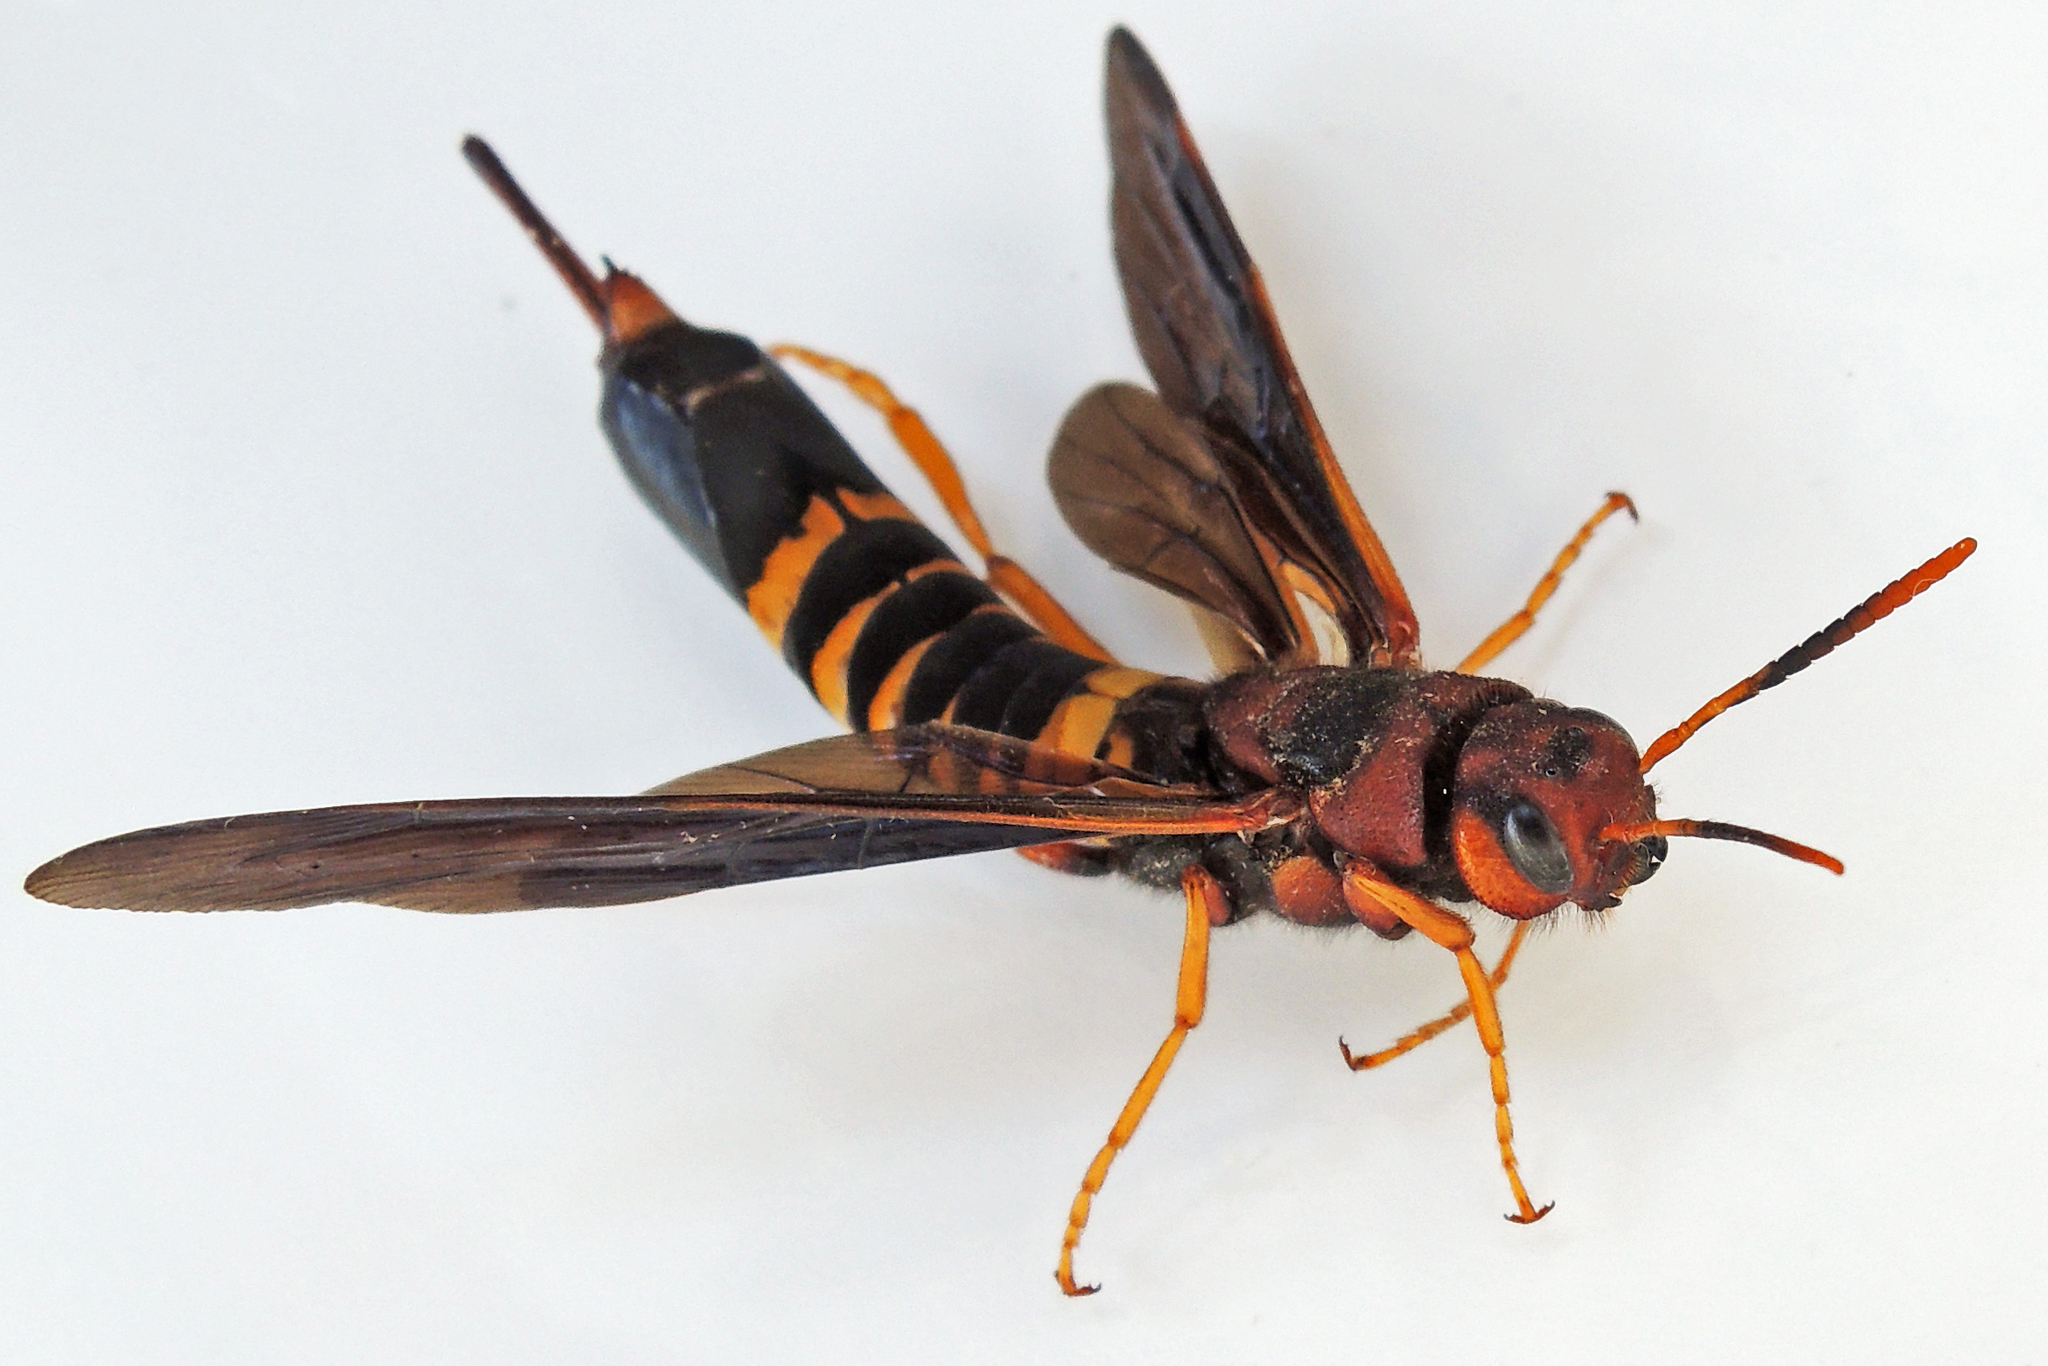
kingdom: Animalia
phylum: Arthropoda
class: Insecta
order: Hymenoptera
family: Siricidae
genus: Tremex
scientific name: Tremex columba
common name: Wasp
